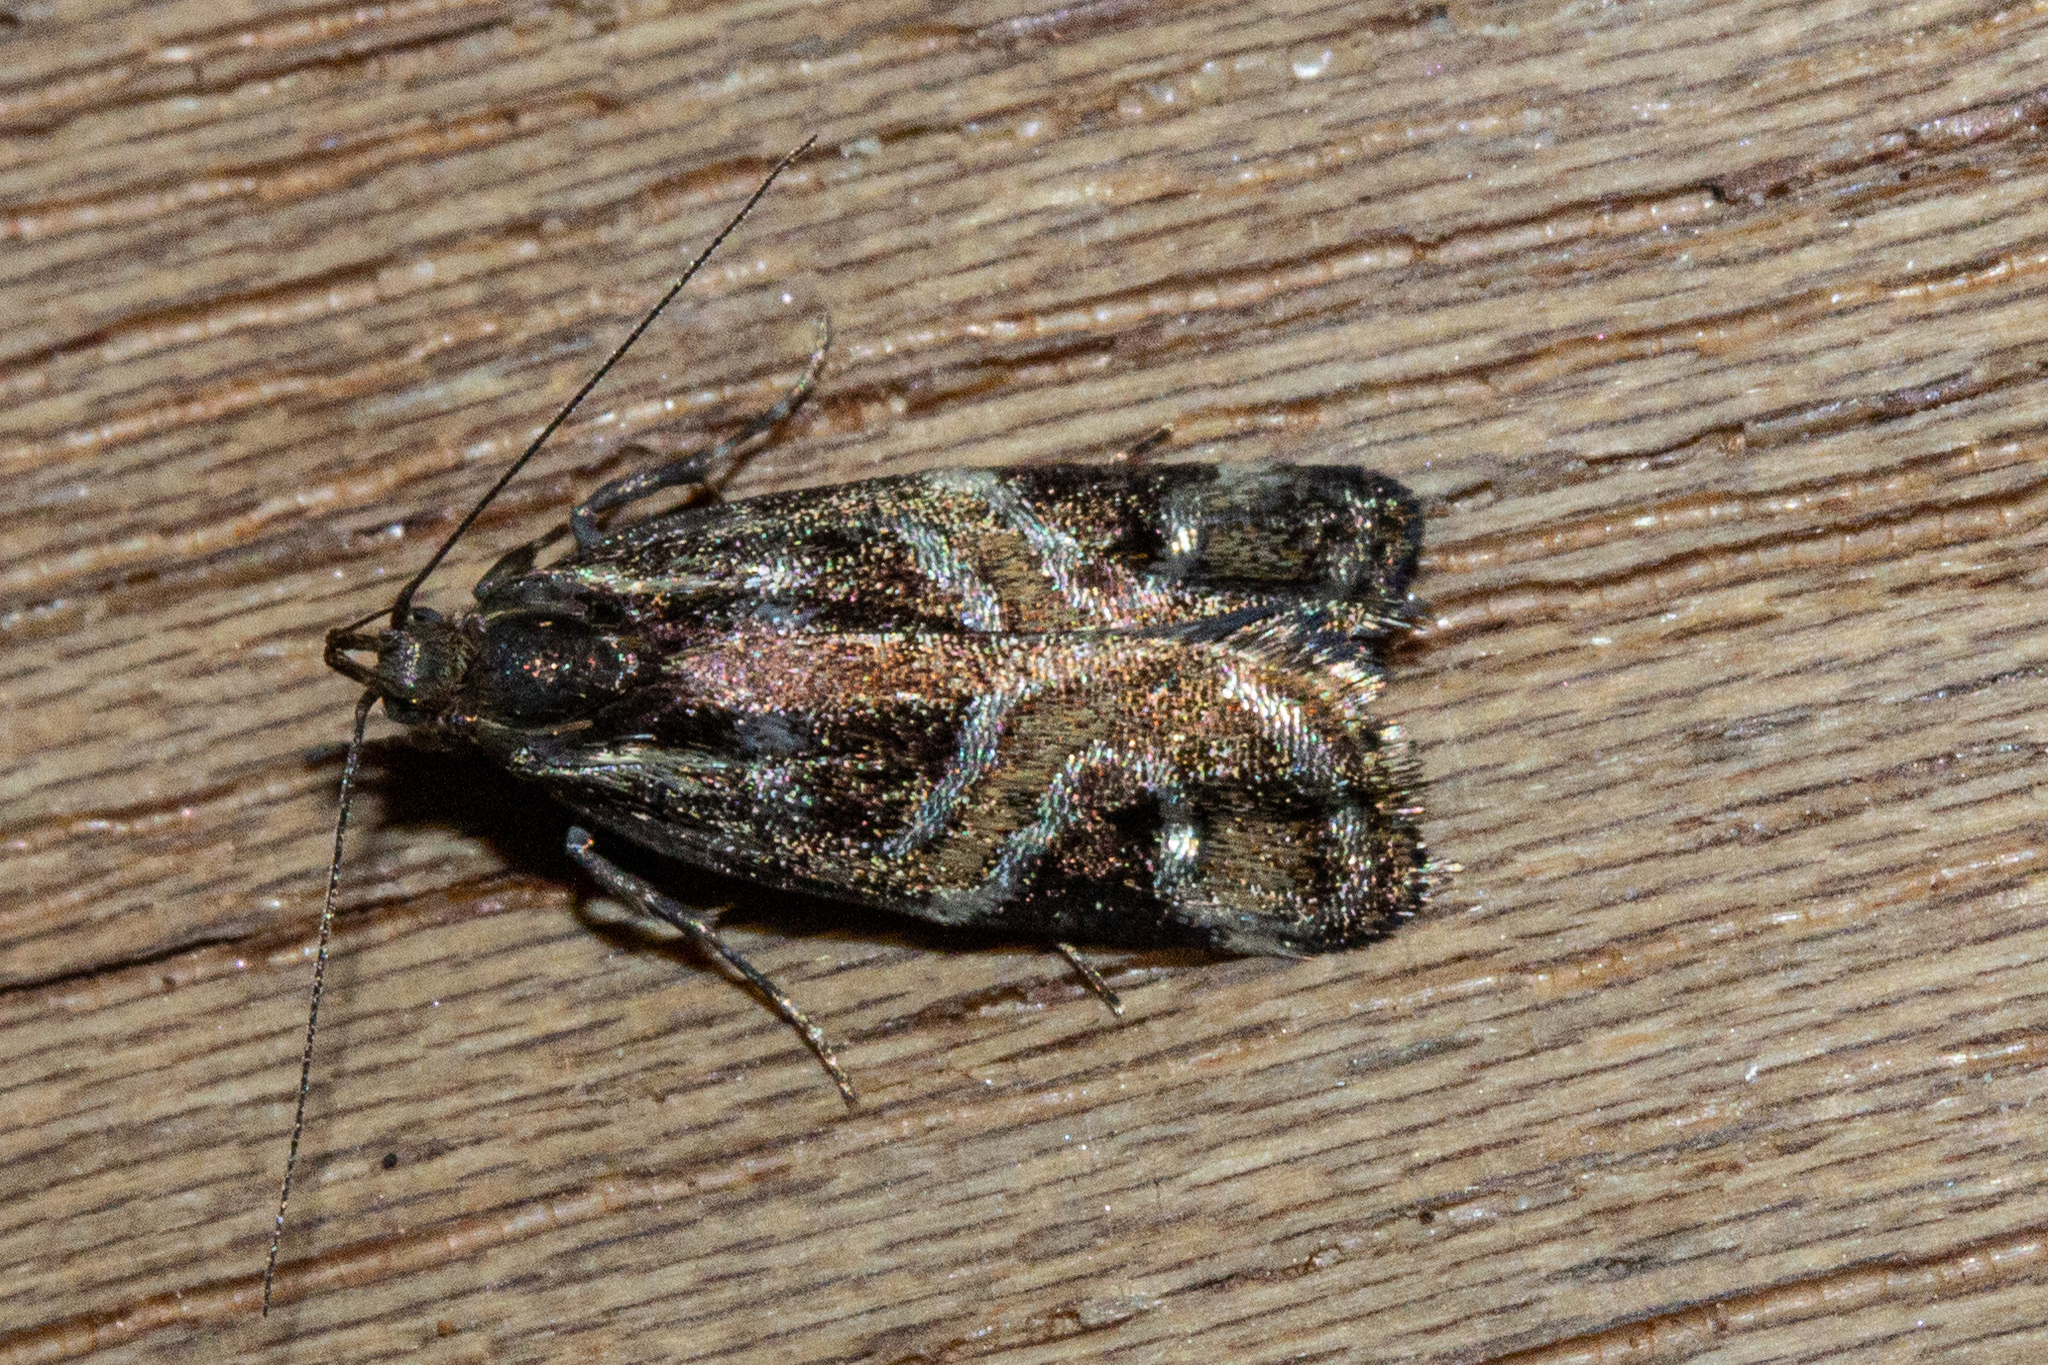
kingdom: Animalia
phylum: Arthropoda
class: Insecta
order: Lepidoptera
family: Oecophoridae
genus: Hierodoris
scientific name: Hierodoris s-fractum
